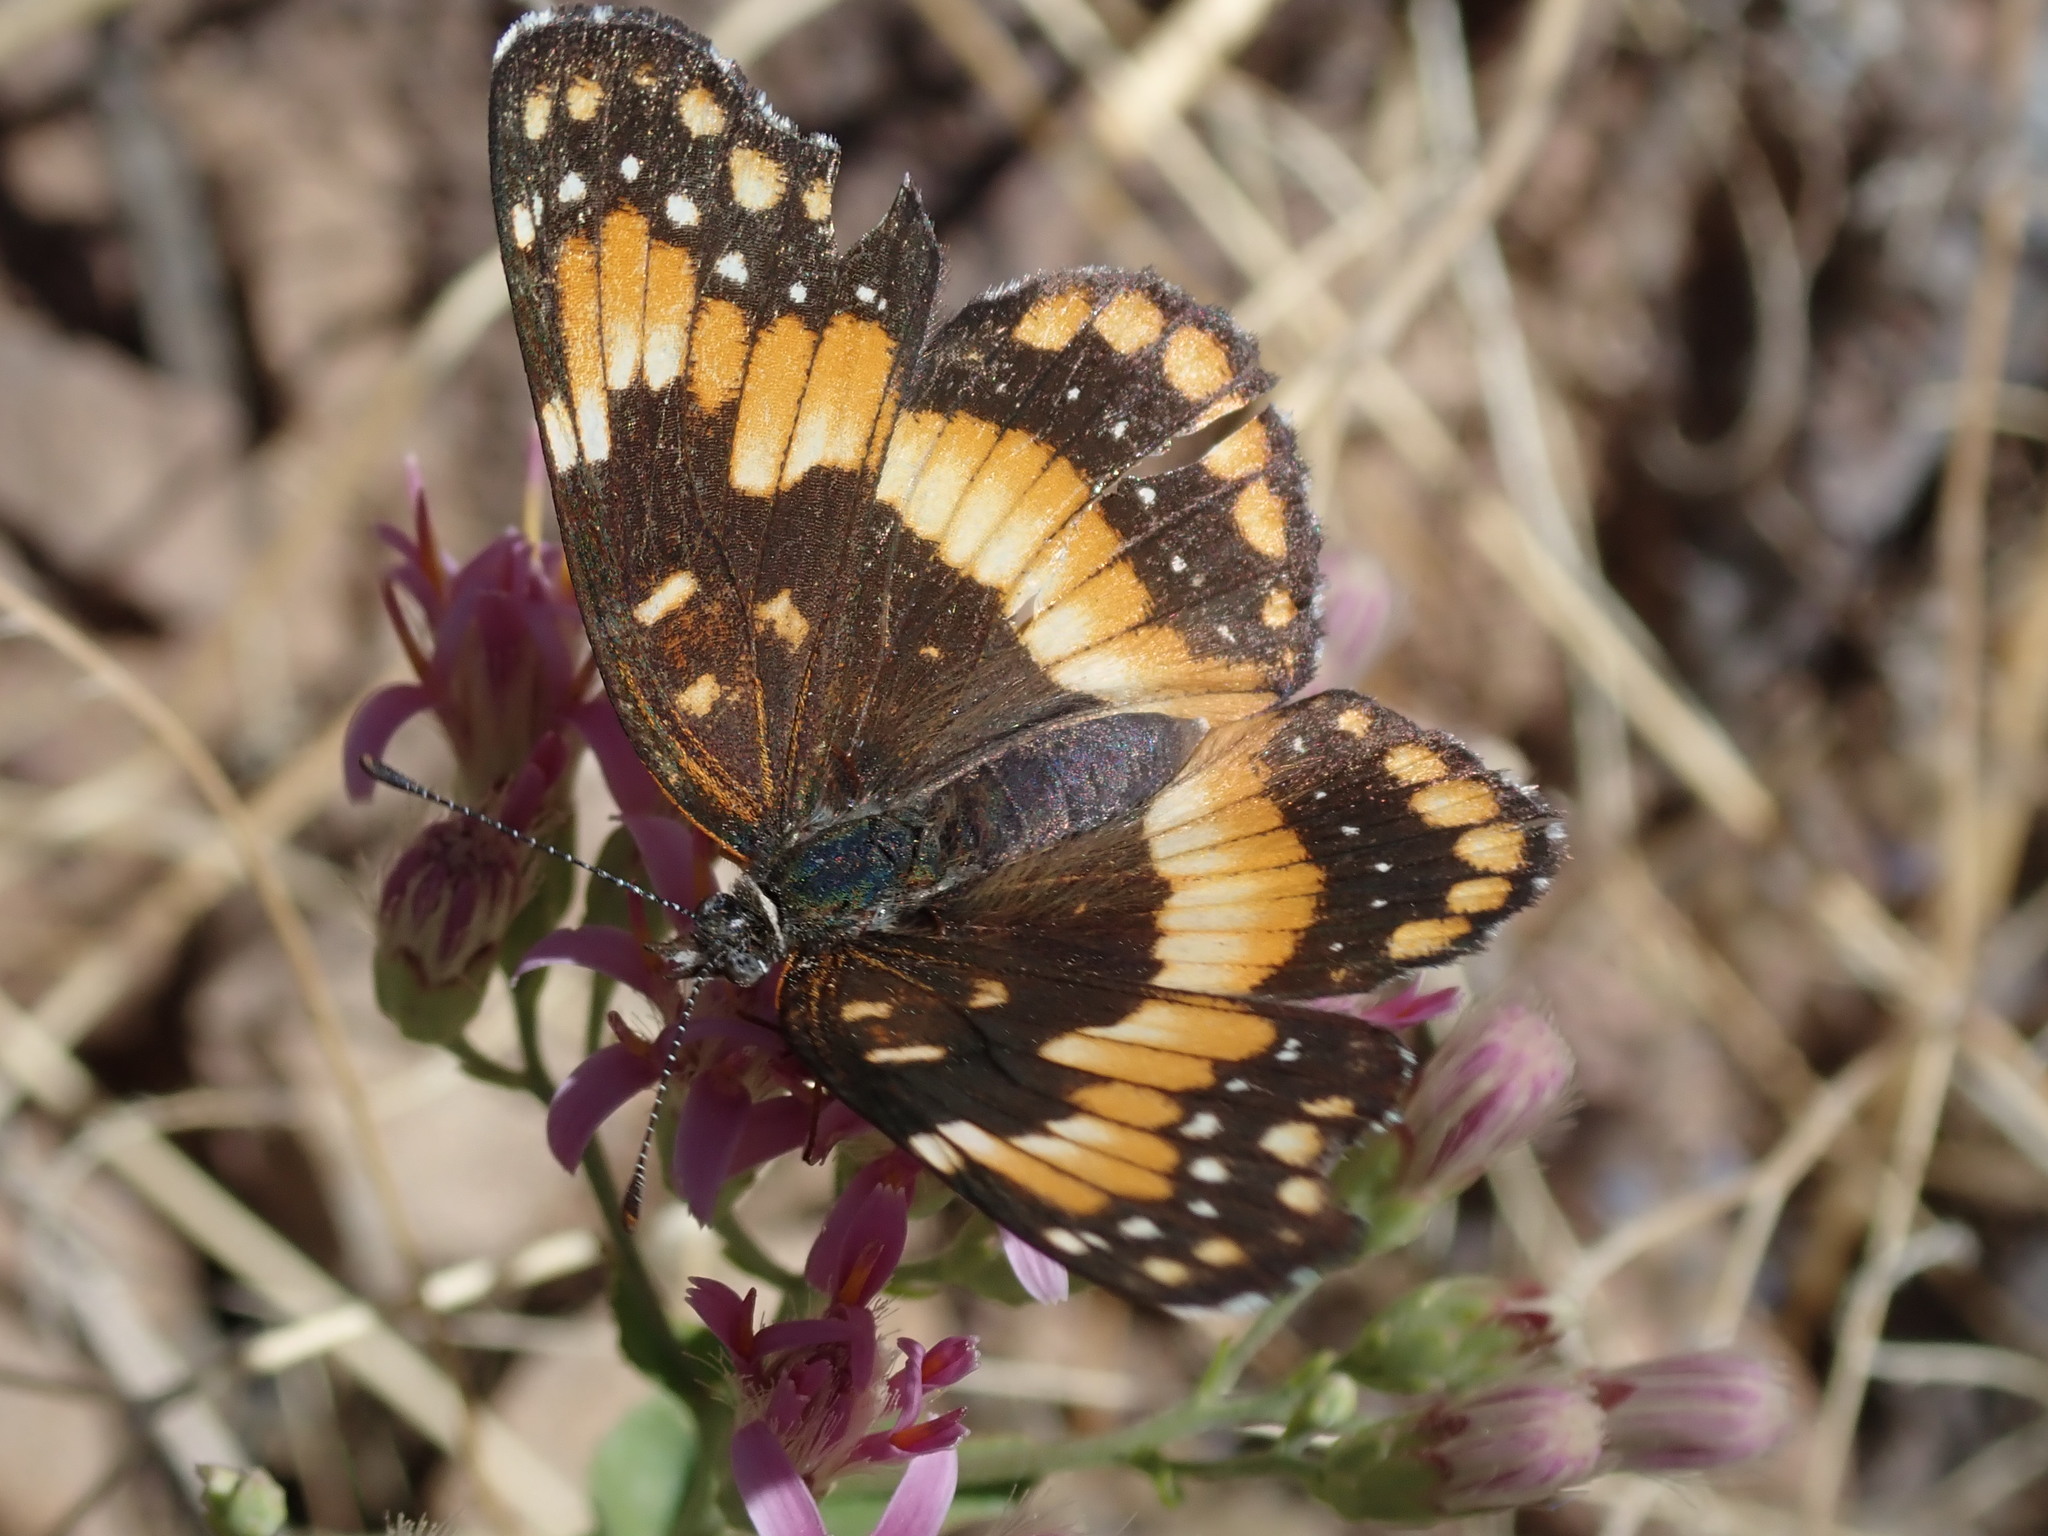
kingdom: Animalia
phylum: Arthropoda
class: Insecta
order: Lepidoptera
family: Nymphalidae
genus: Chlosyne
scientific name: Chlosyne californica
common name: California patch
